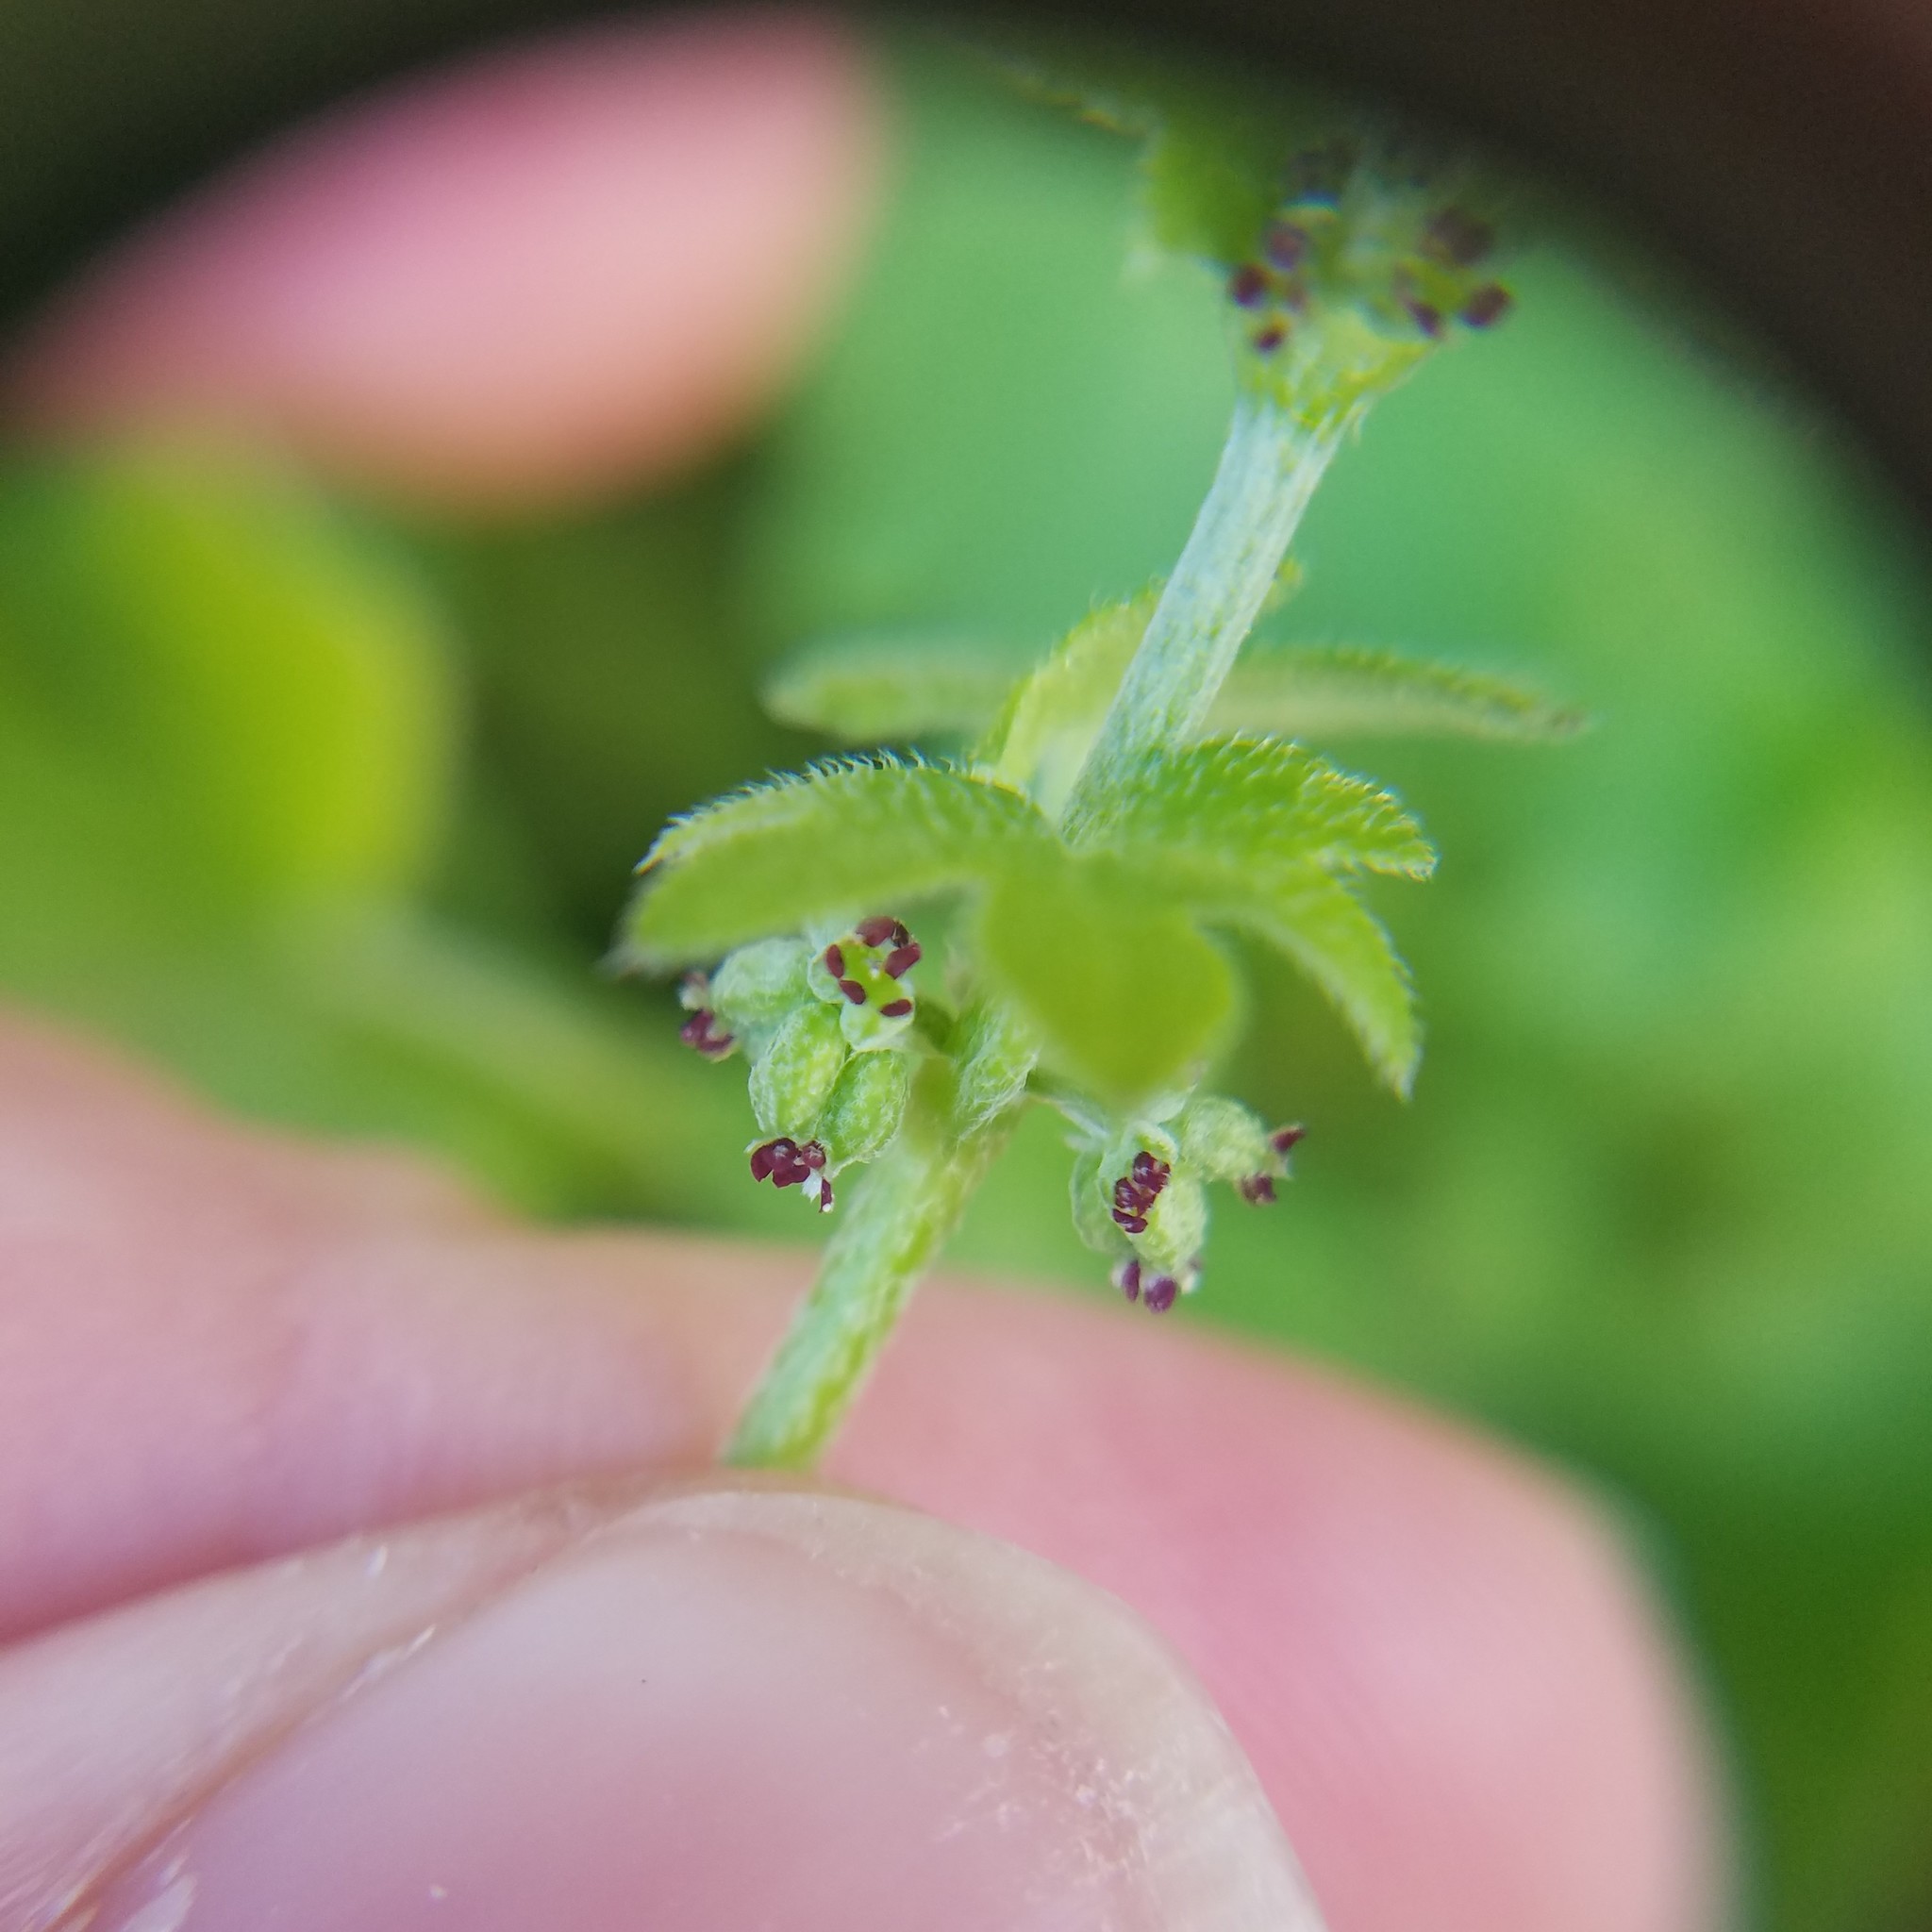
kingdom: Plantae
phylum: Tracheophyta
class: Magnoliopsida
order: Apiales
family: Apiaceae
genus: Bowlesia
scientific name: Bowlesia incana
